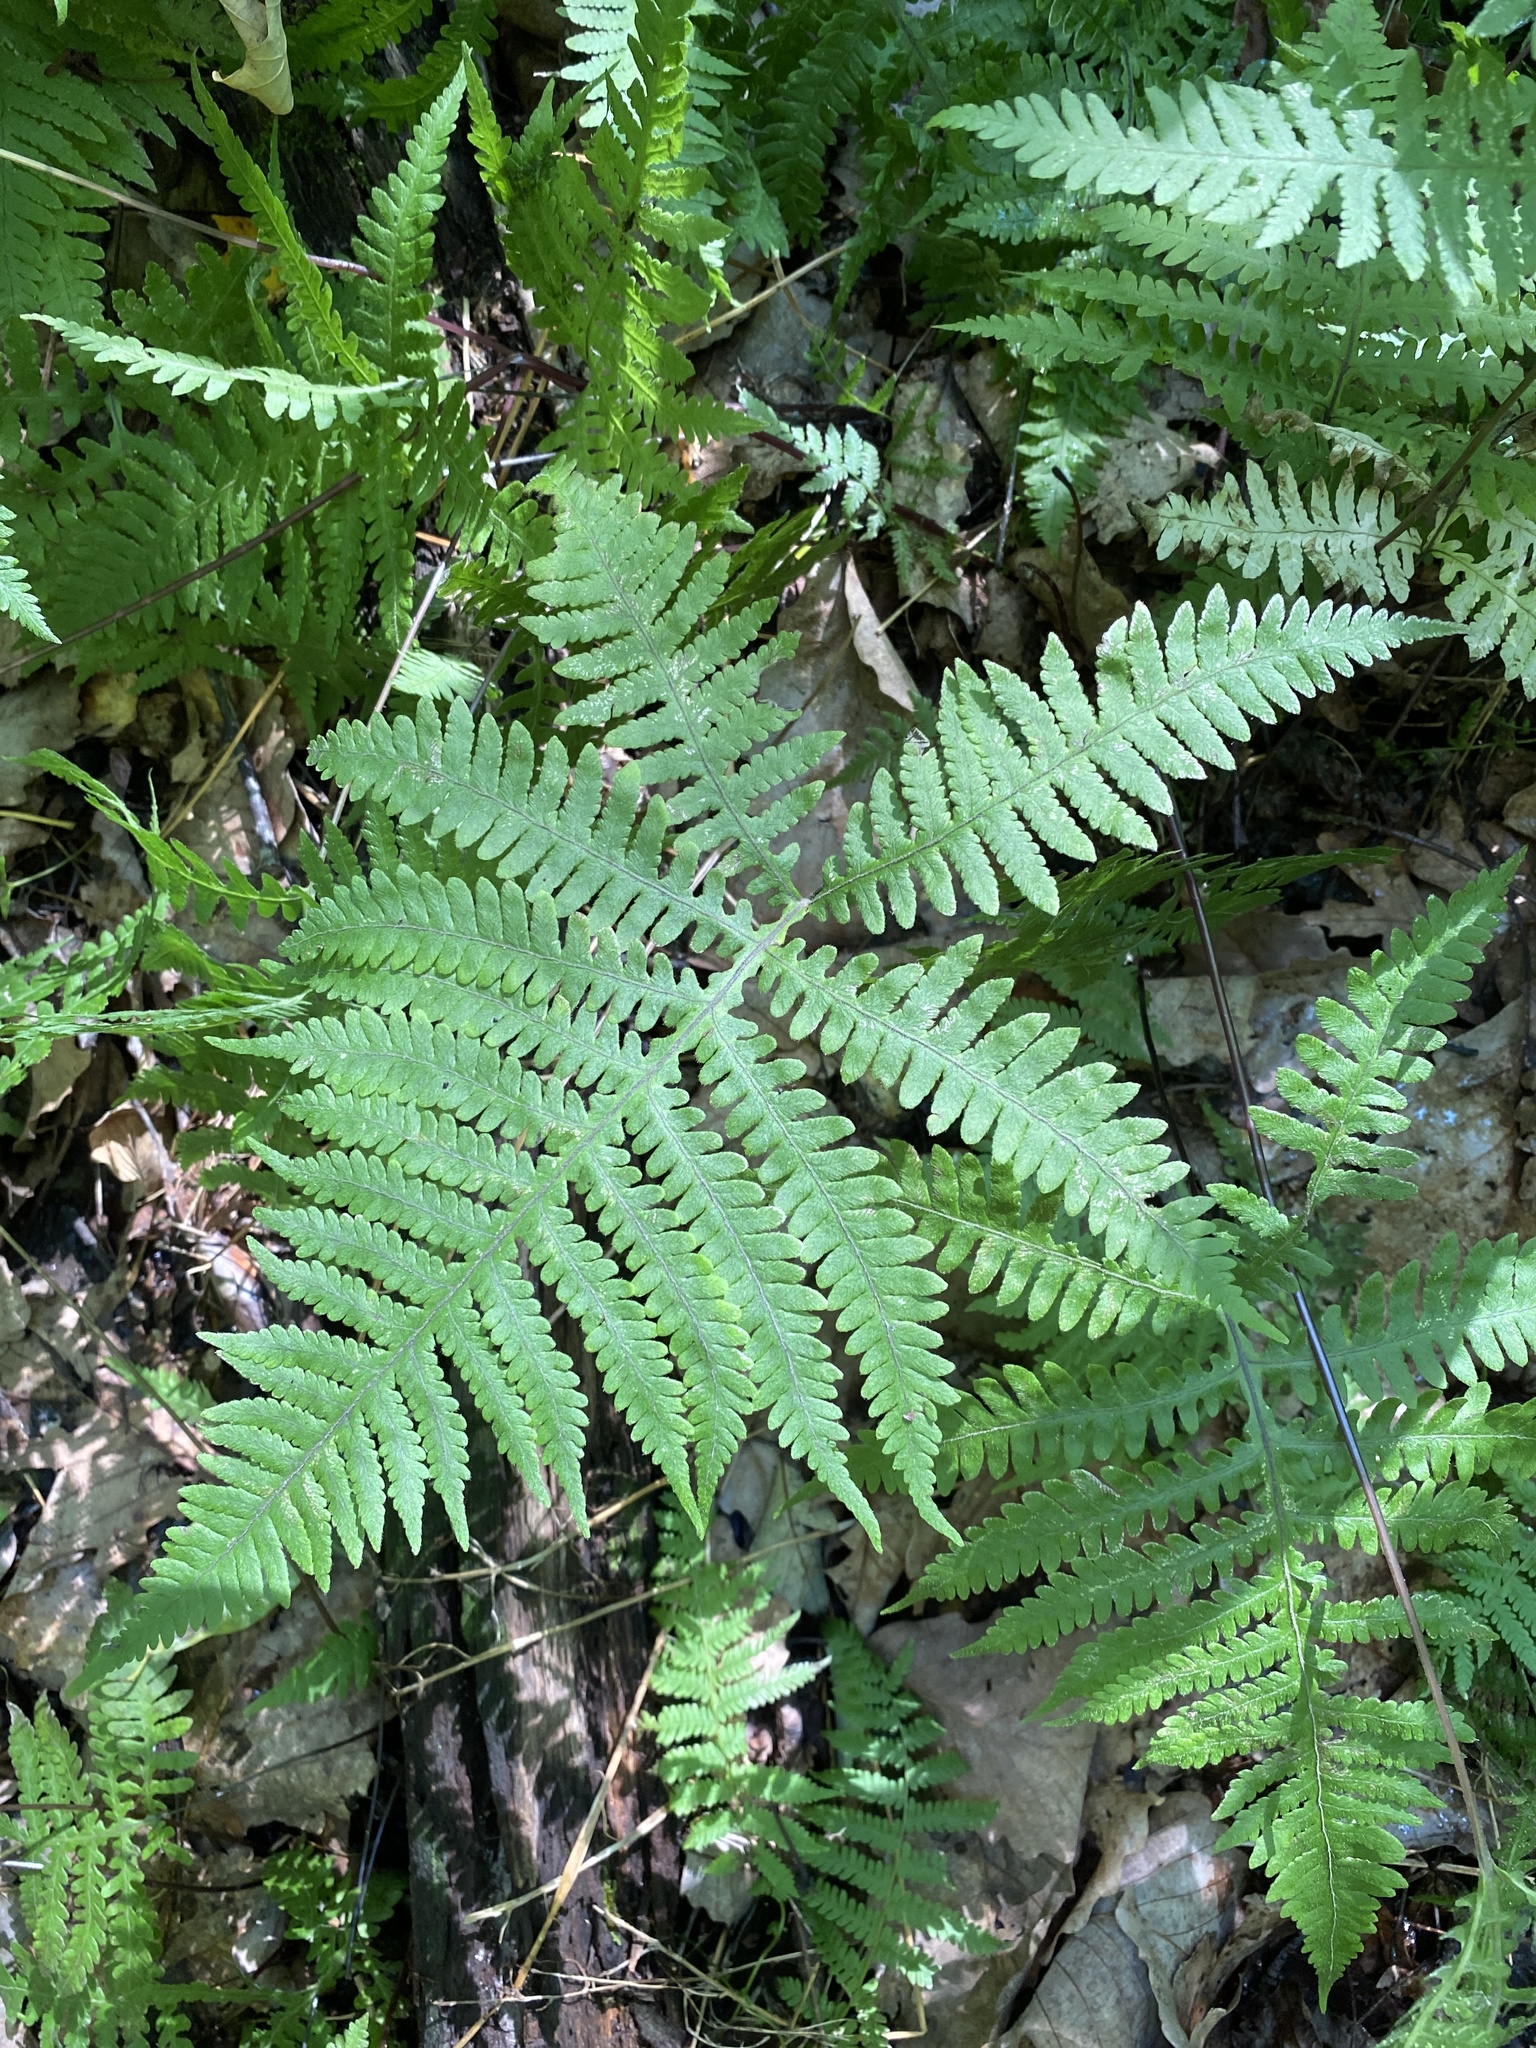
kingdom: Plantae
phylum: Tracheophyta
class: Polypodiopsida
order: Polypodiales
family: Thelypteridaceae
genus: Phegopteris
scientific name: Phegopteris hexagonoptera
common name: Broad beech fern
